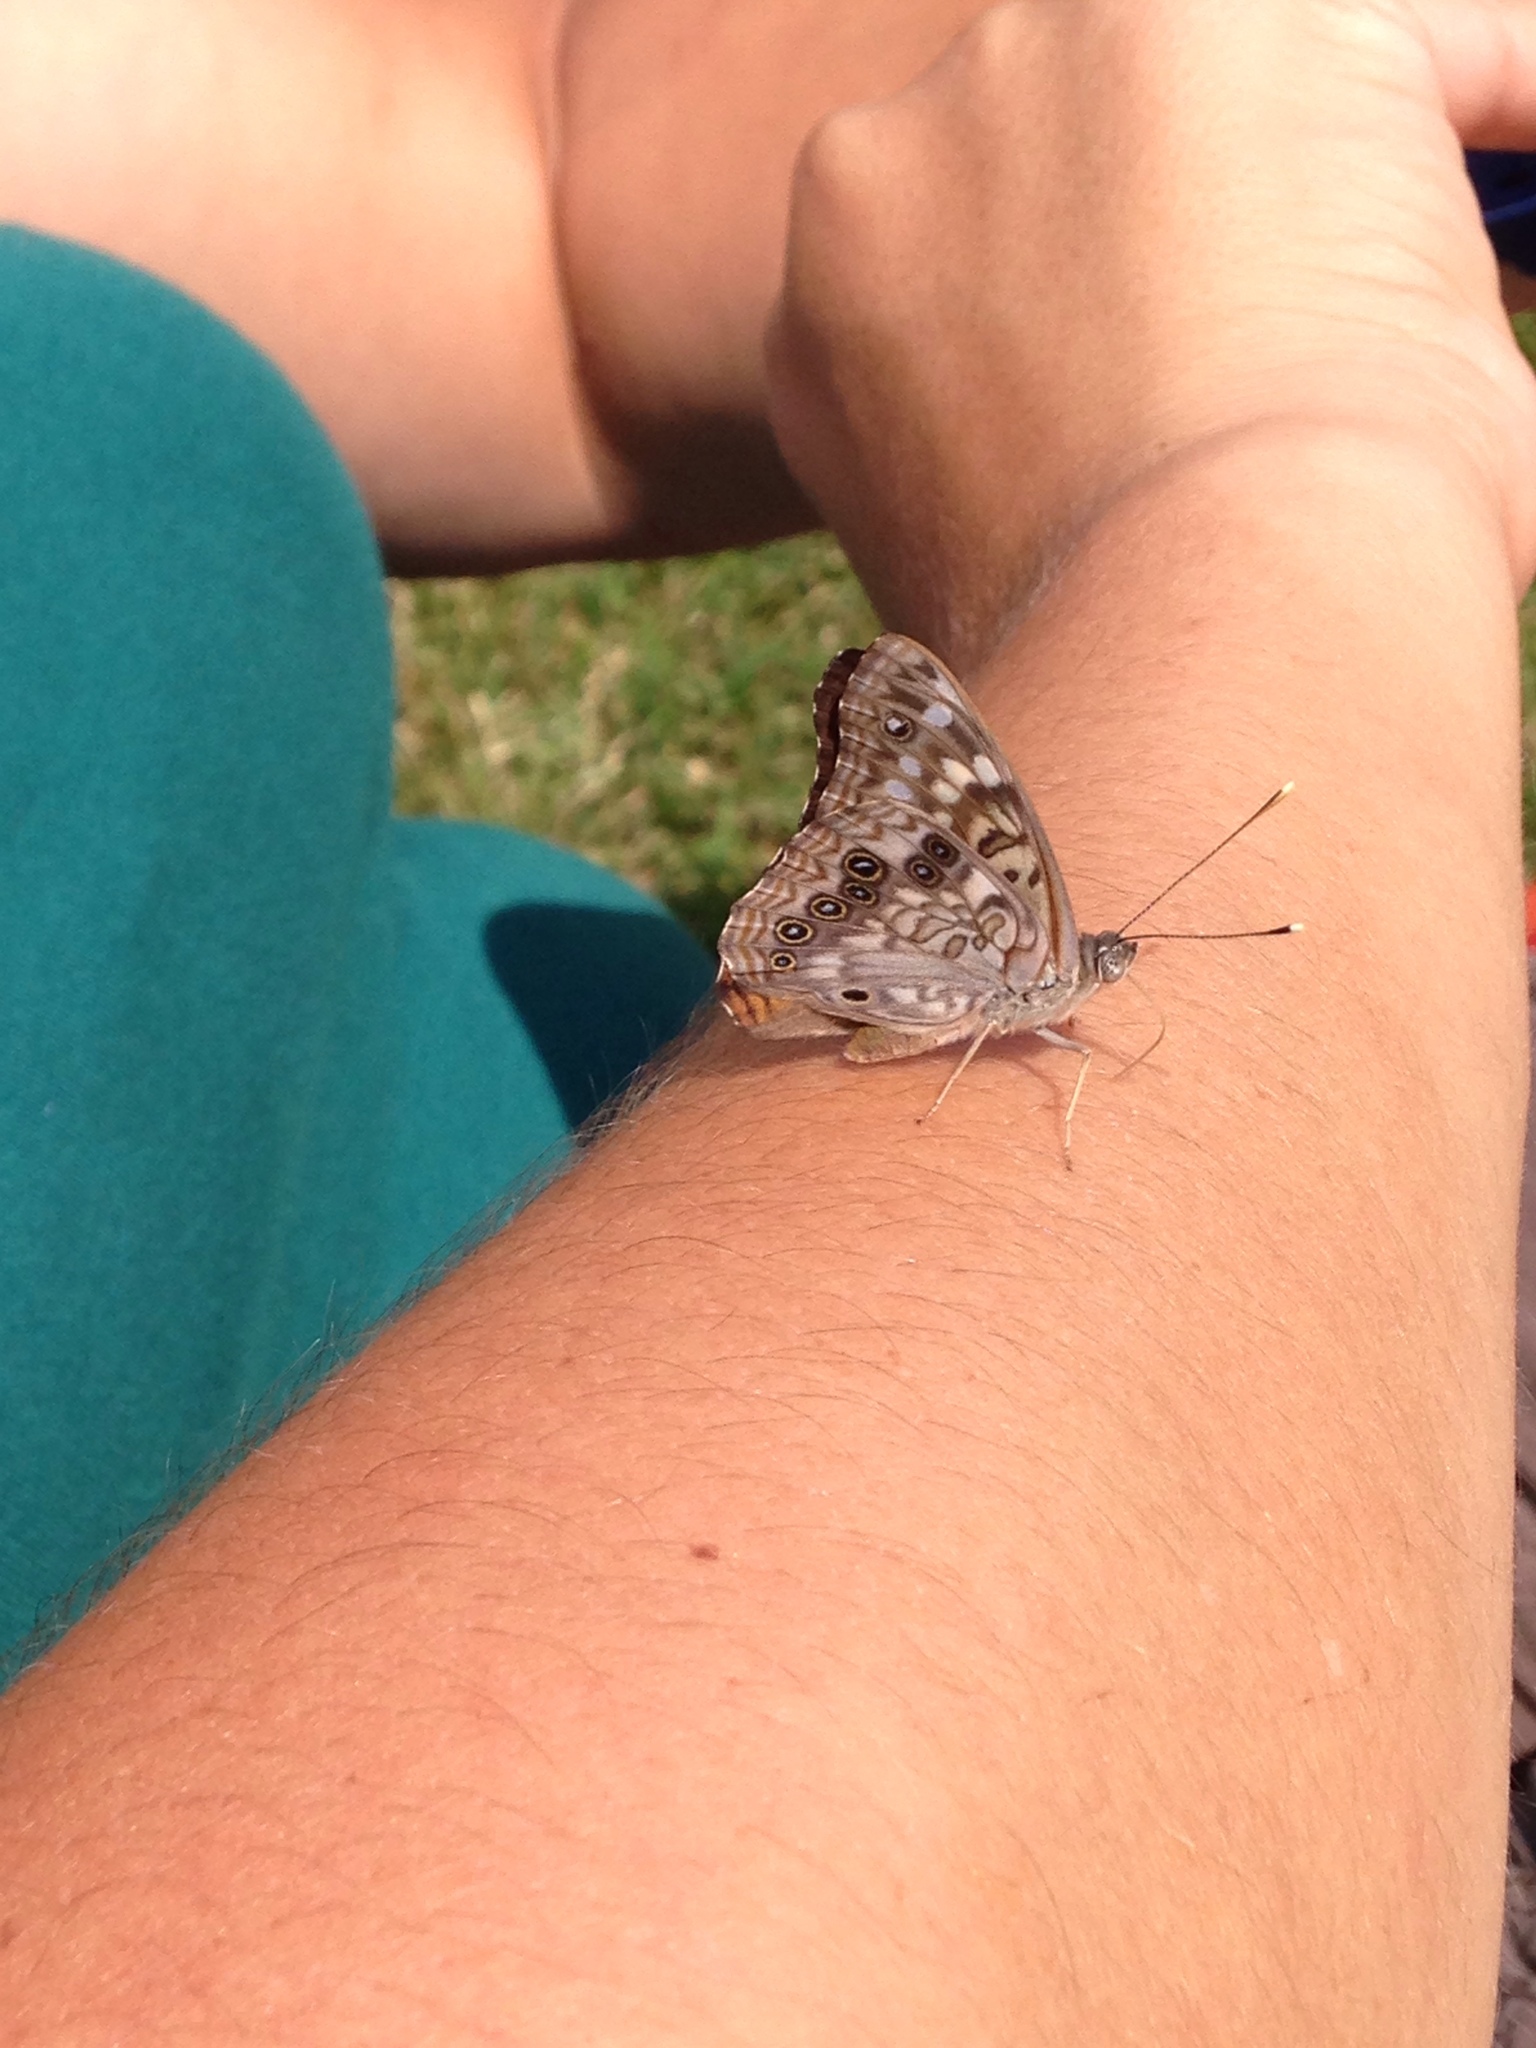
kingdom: Animalia
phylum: Arthropoda
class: Insecta
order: Lepidoptera
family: Nymphalidae
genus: Asterocampa
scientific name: Asterocampa celtis
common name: Hackberry emperor
